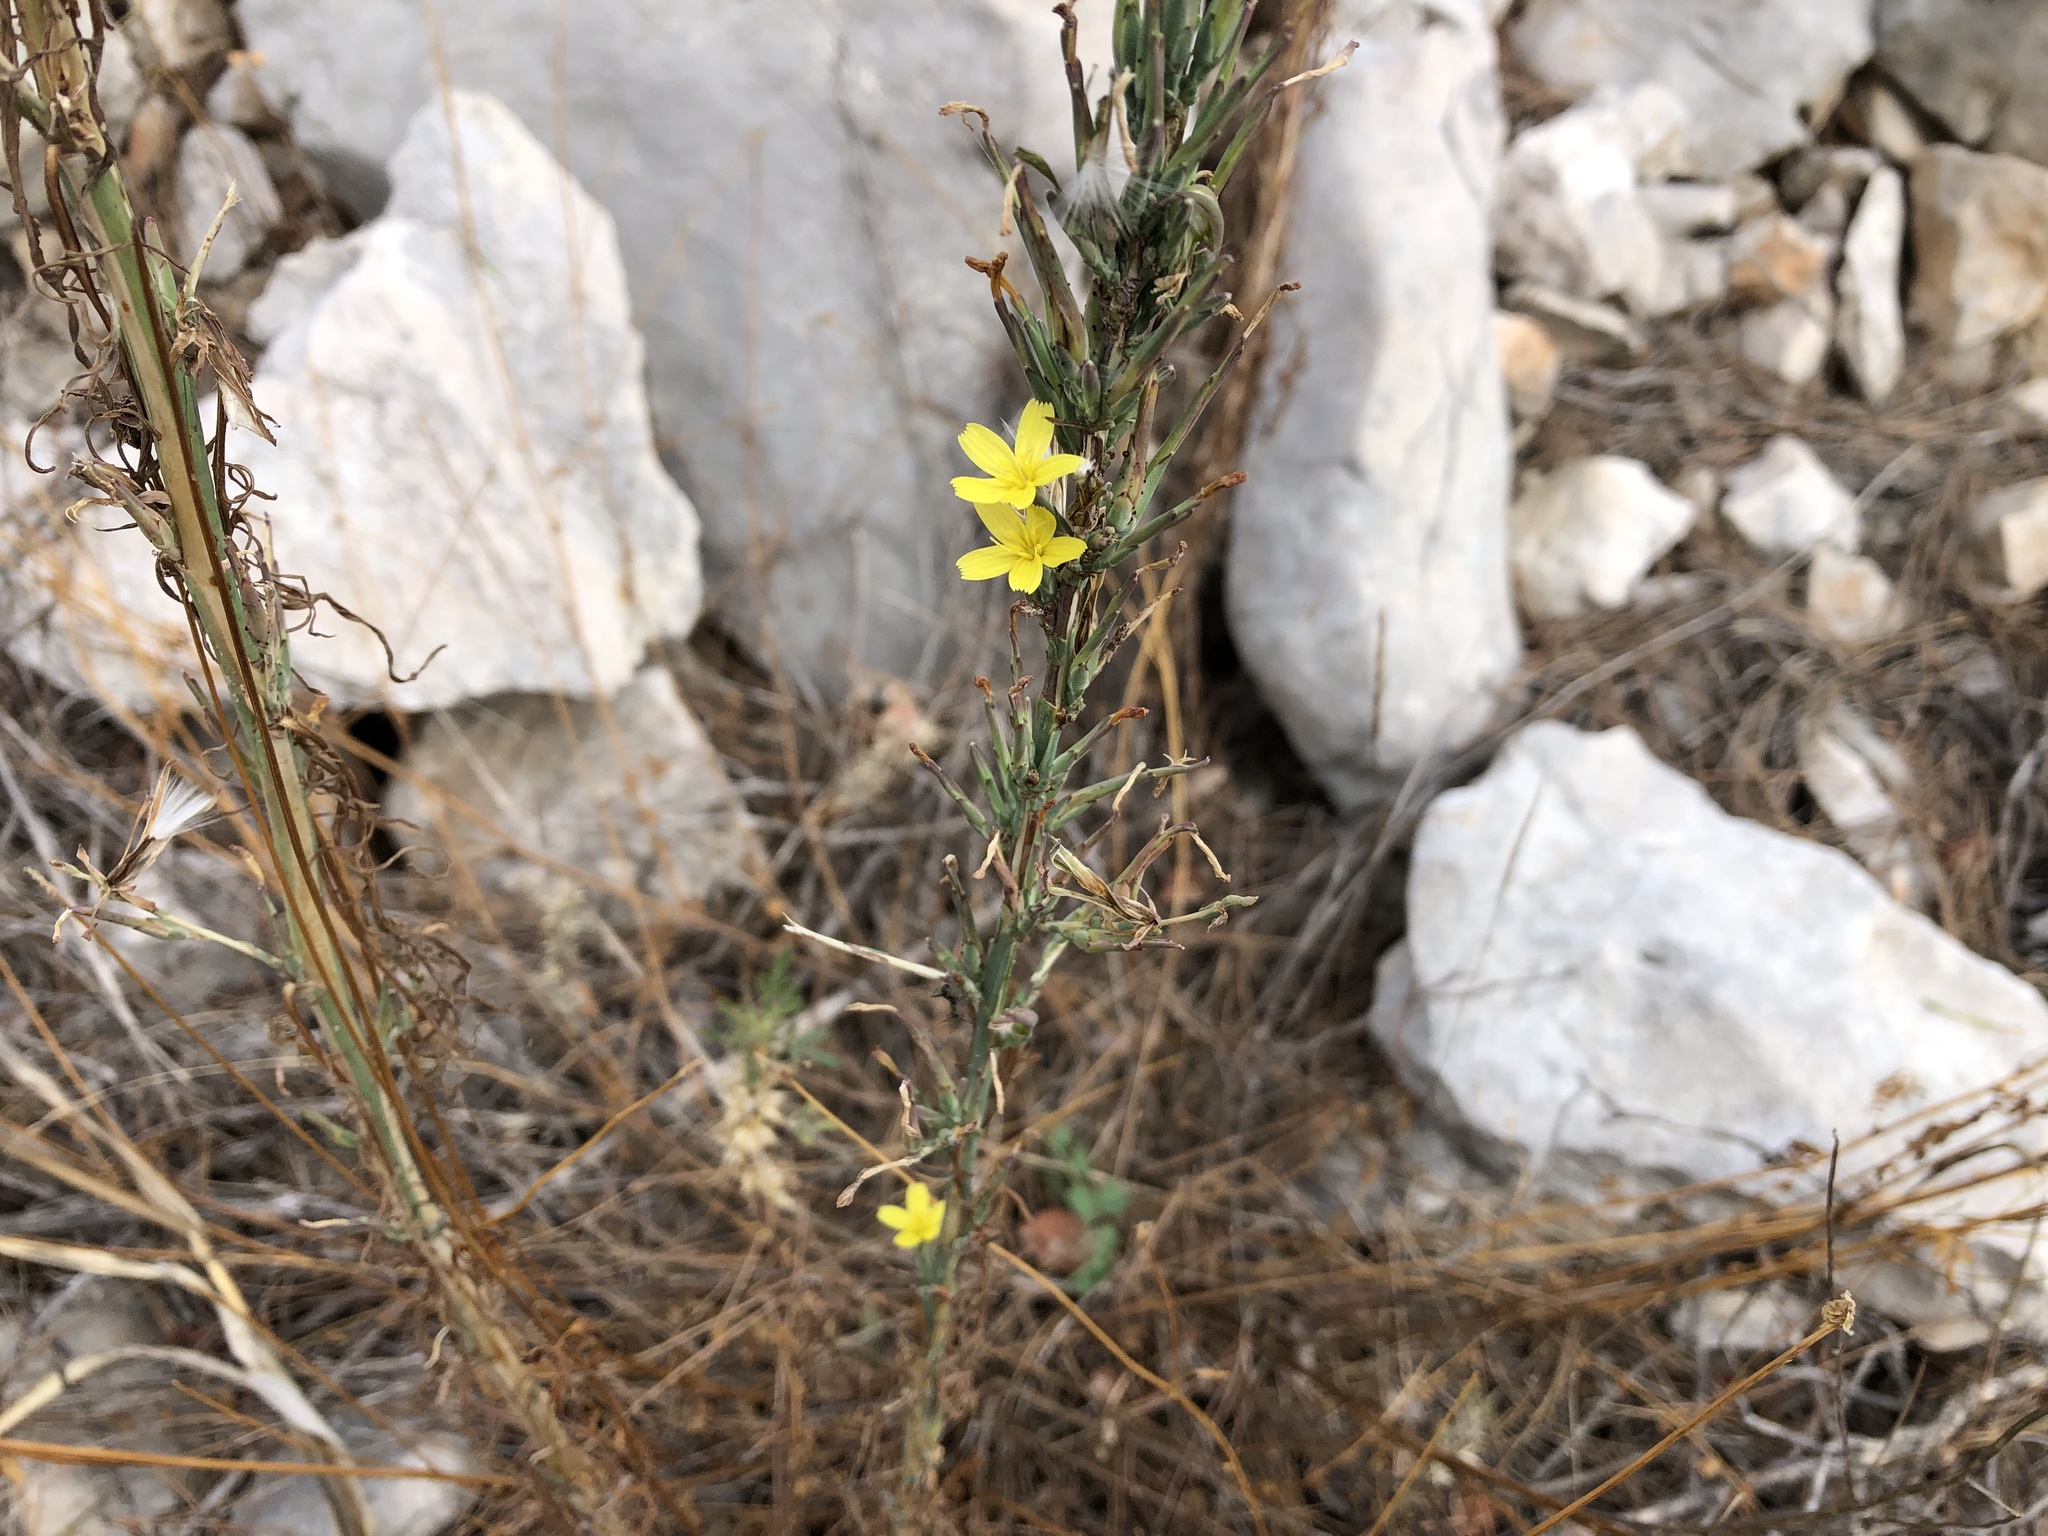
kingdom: Plantae
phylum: Tracheophyta
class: Magnoliopsida
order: Asterales
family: Asteraceae
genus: Lactuca
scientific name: Lactuca viminea
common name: Pliant lettuce
